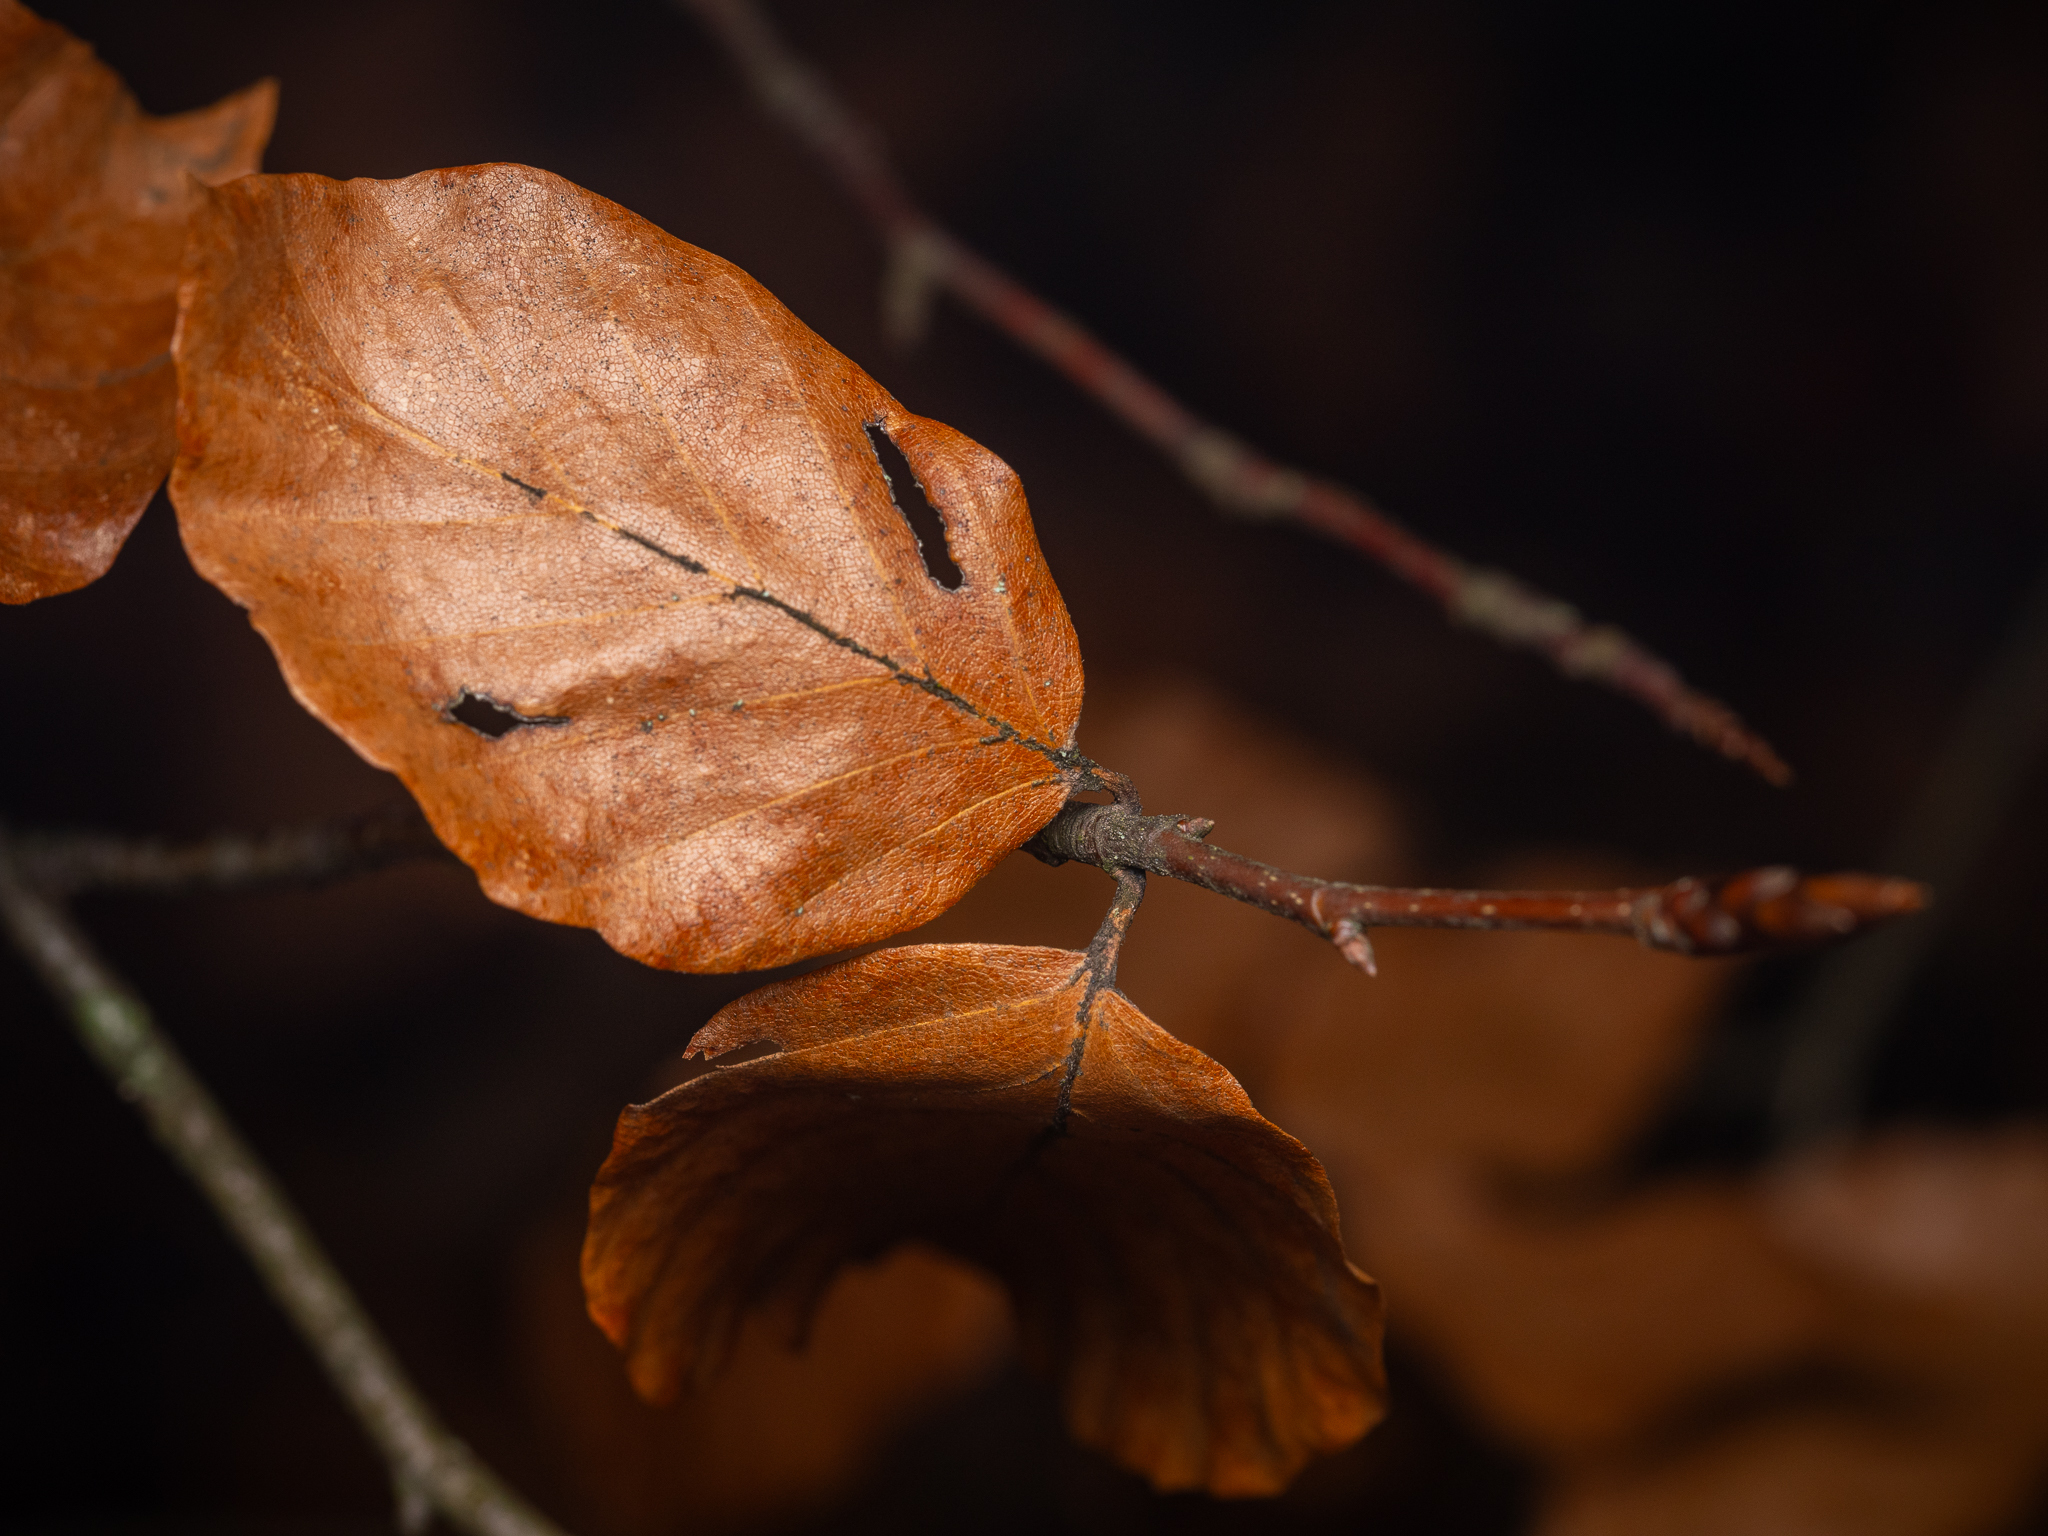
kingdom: Plantae
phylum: Tracheophyta
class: Magnoliopsida
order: Fagales
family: Fagaceae
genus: Fagus
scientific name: Fagus sylvatica
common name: Beech
